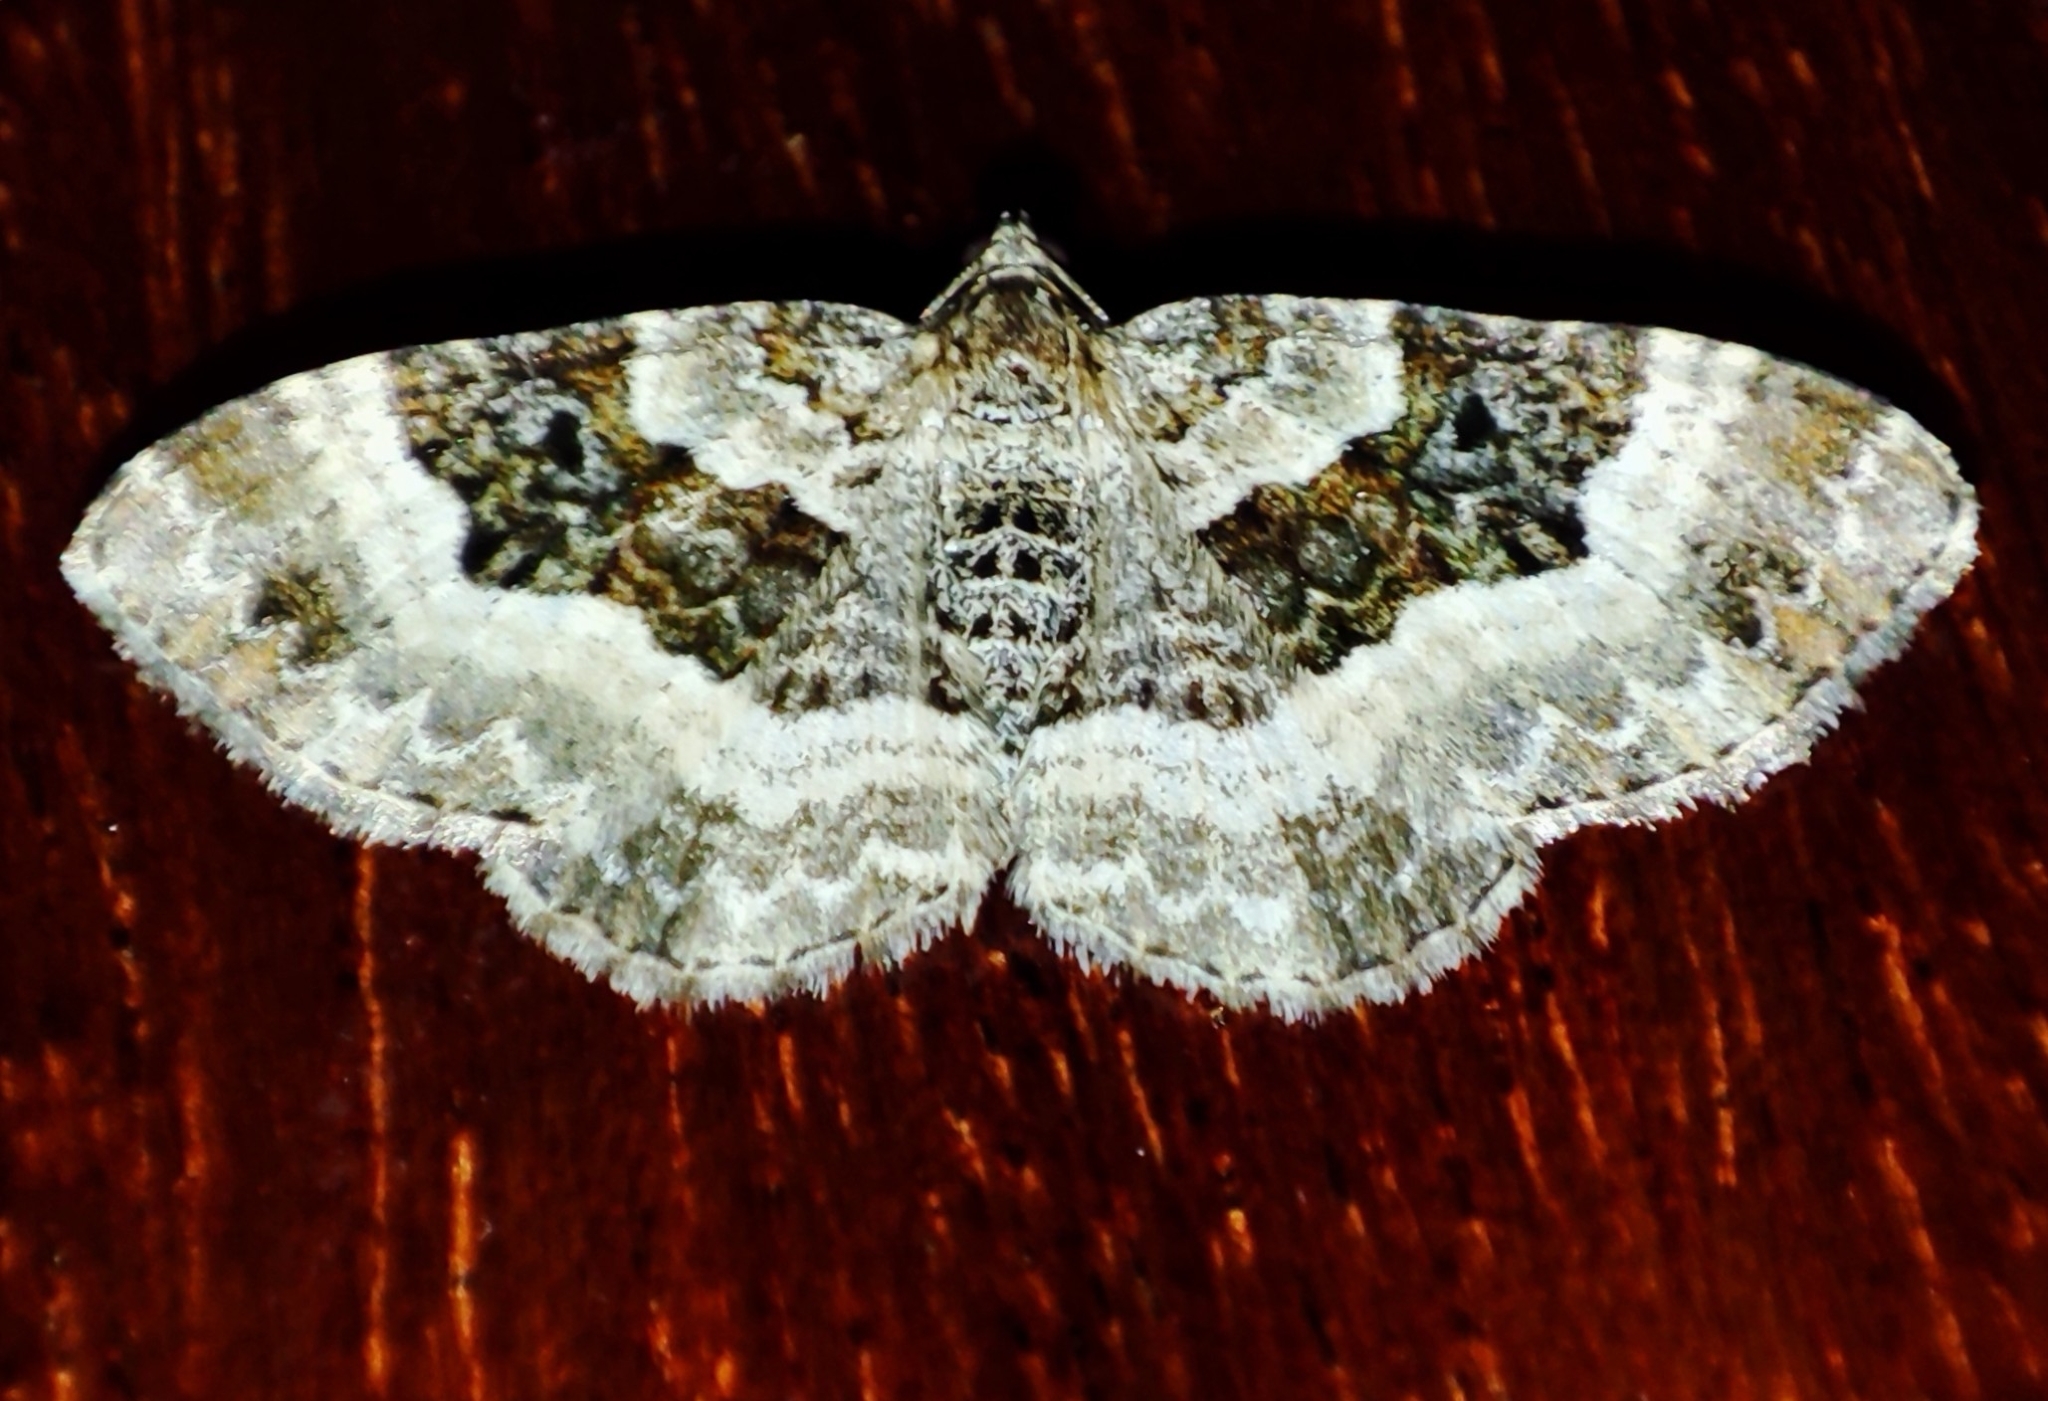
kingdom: Animalia
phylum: Arthropoda
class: Insecta
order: Lepidoptera
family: Geometridae
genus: Epirrhoe
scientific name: Epirrhoe alternata
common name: Common carpet
